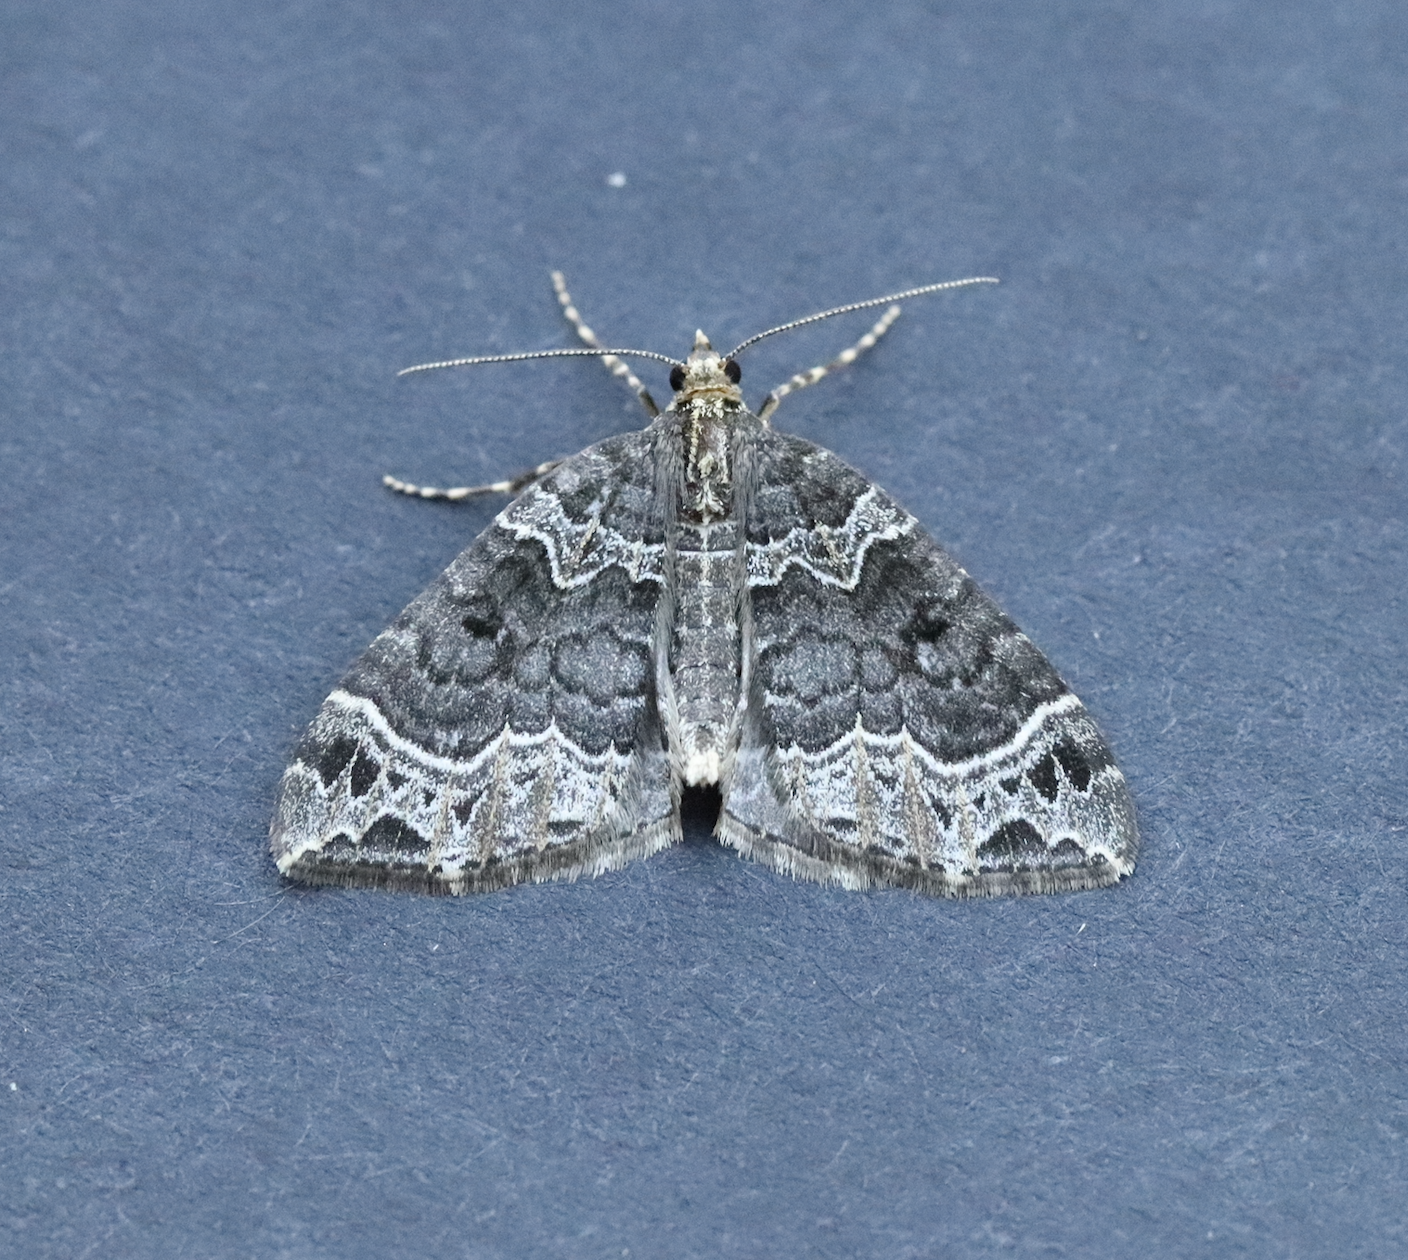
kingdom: Animalia
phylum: Arthropoda
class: Insecta
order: Lepidoptera
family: Geometridae
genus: Ecliptopera
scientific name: Ecliptopera silaceata
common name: Small phoenix
